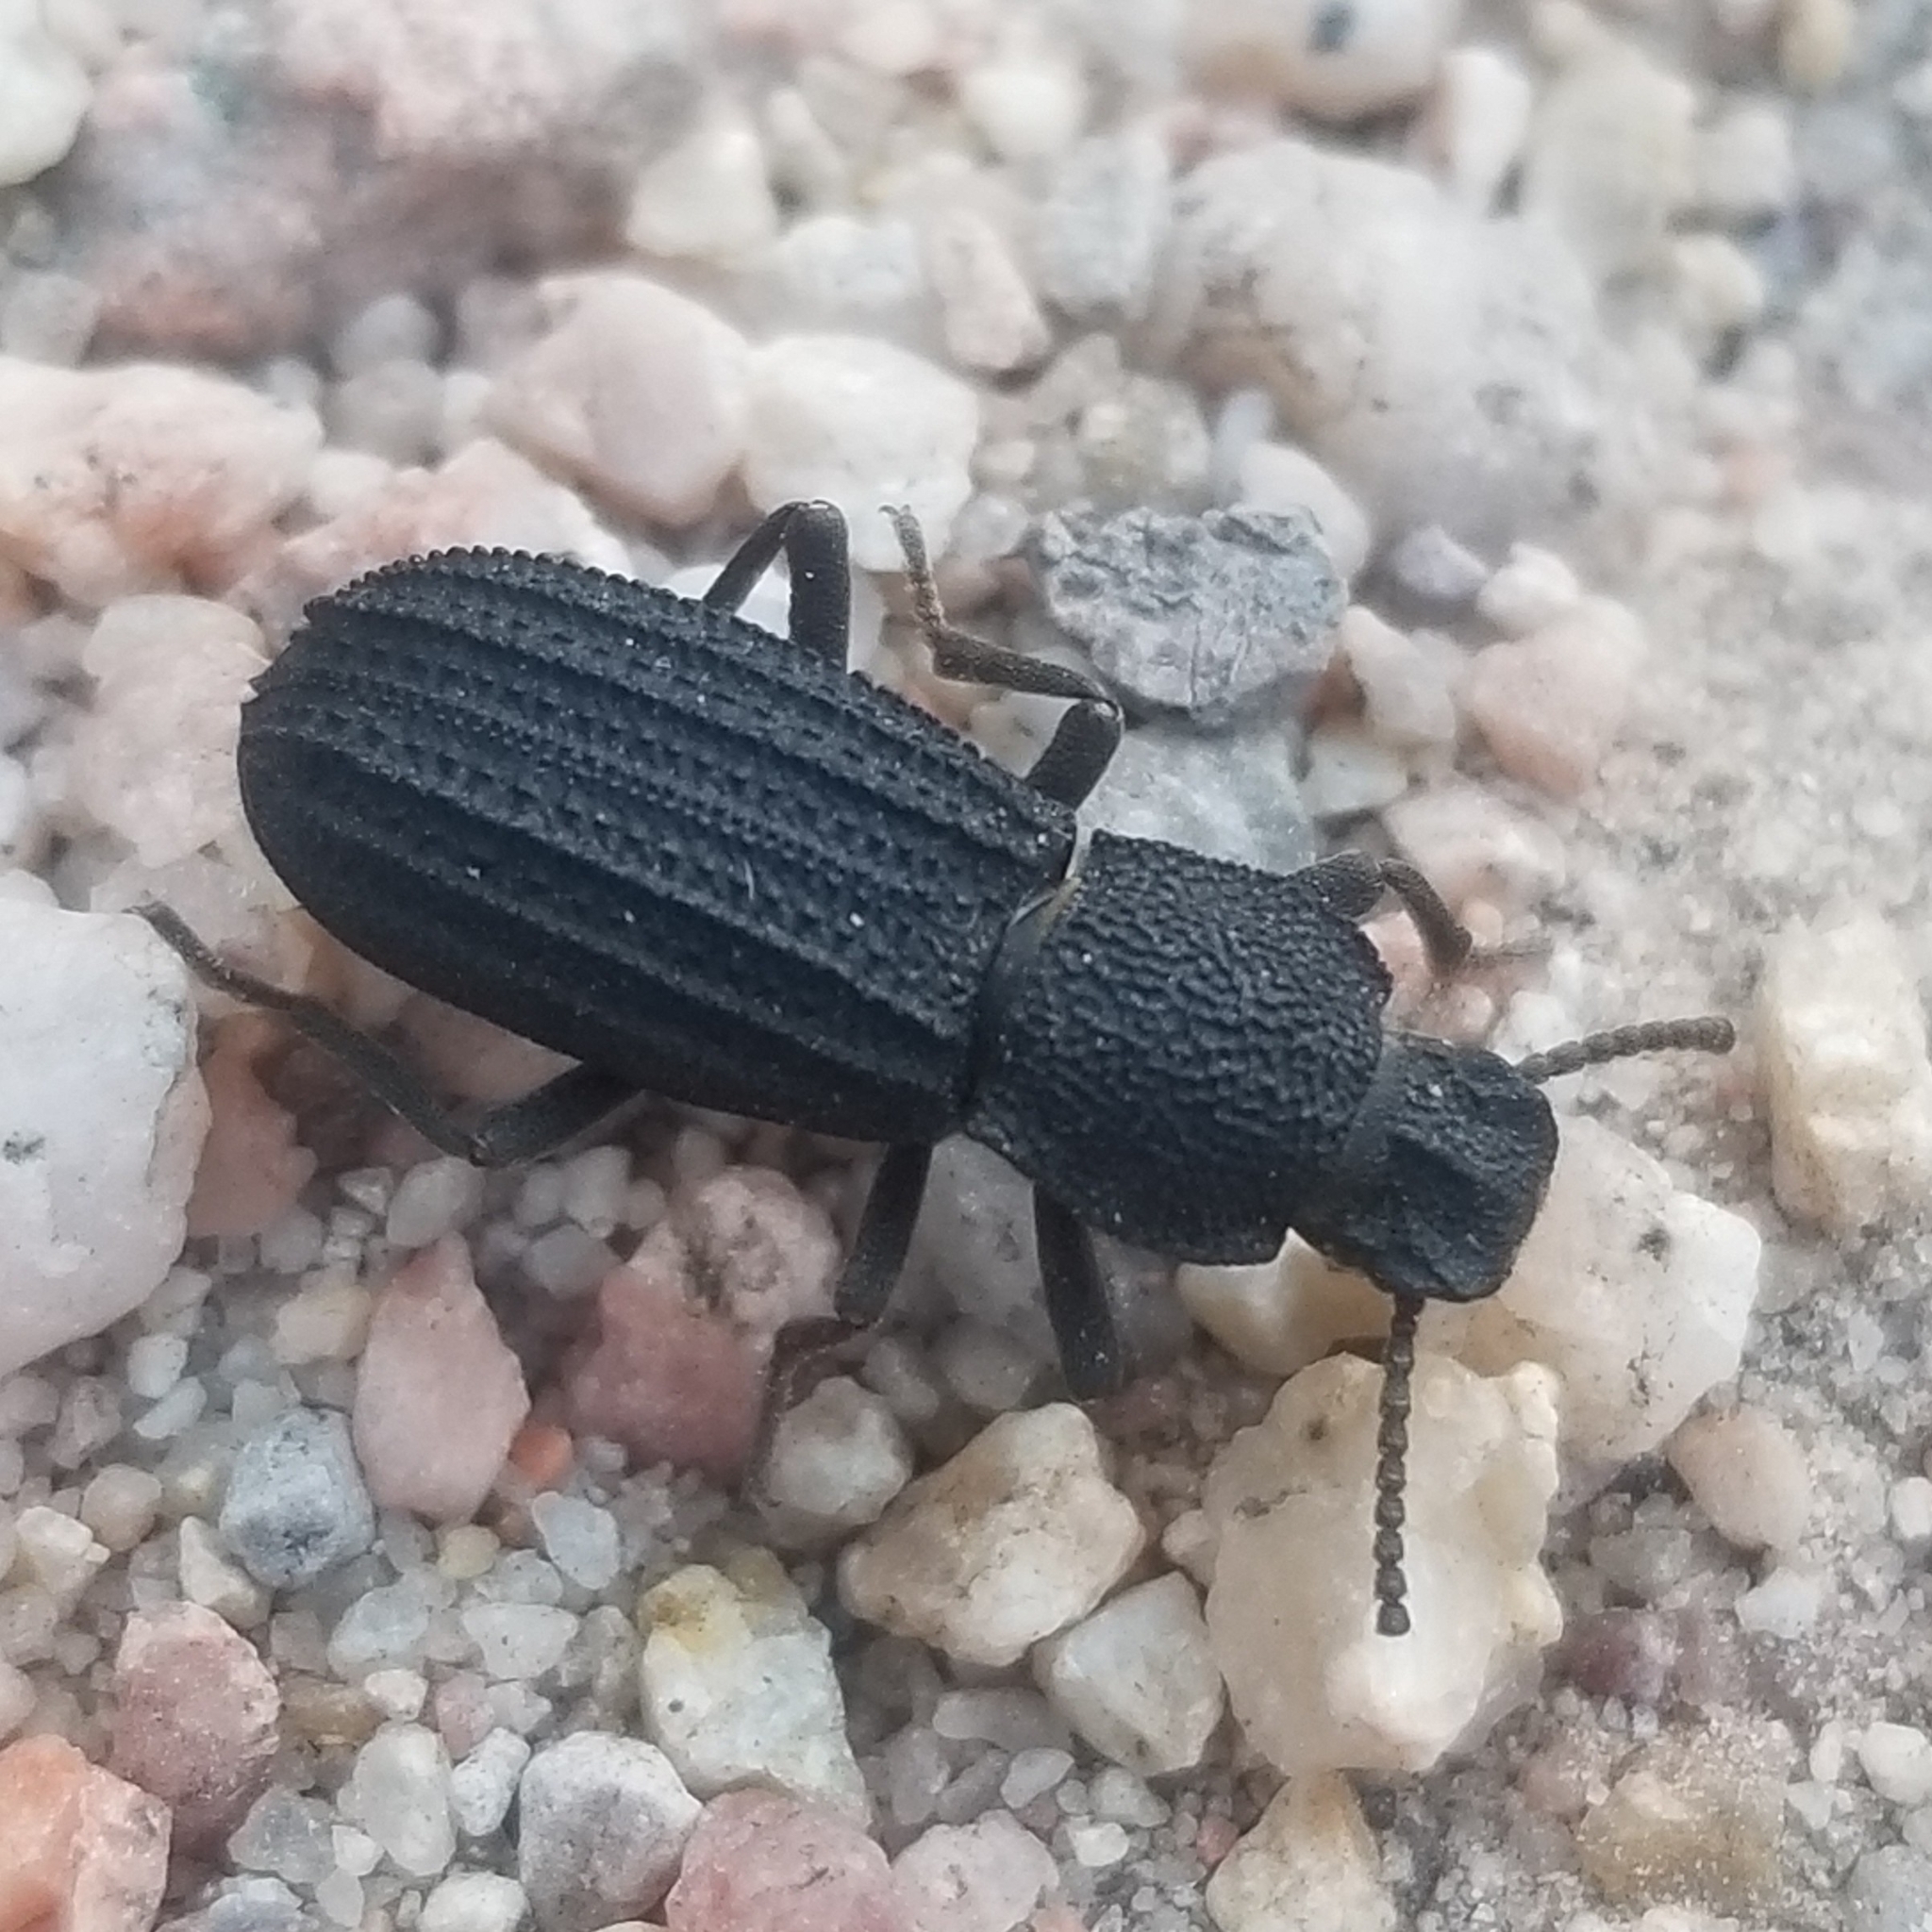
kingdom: Animalia
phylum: Arthropoda
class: Insecta
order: Coleoptera
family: Tenebrionidae
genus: Nyctoporis
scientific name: Nyctoporis carinata
